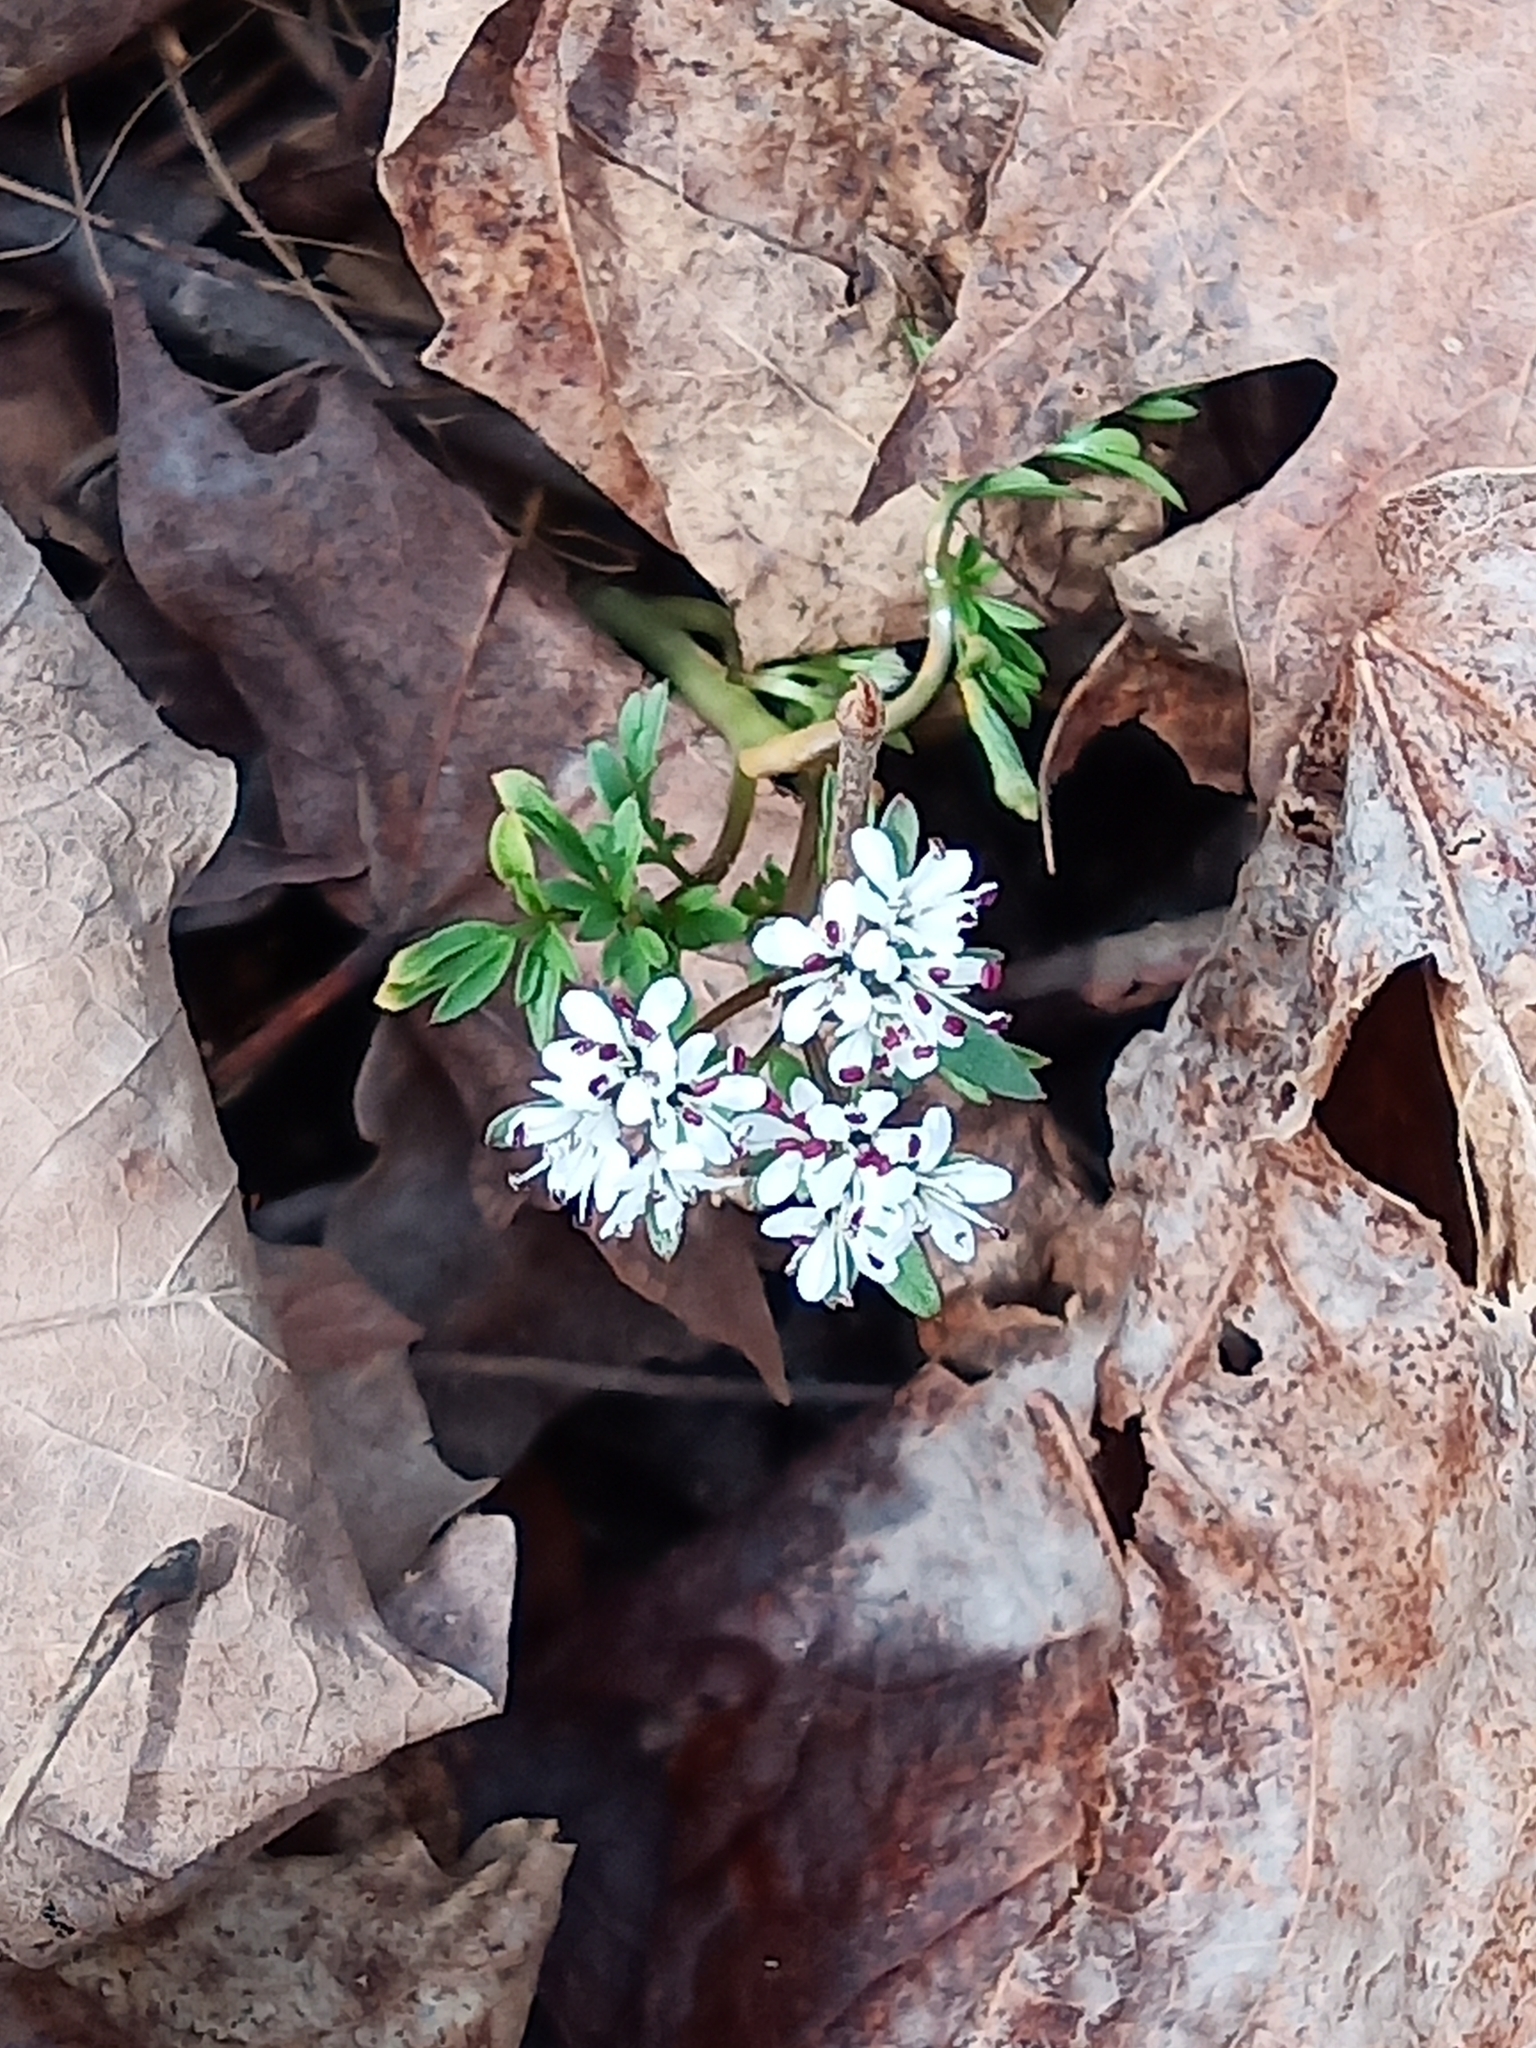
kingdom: Plantae
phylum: Tracheophyta
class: Magnoliopsida
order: Apiales
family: Apiaceae
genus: Erigenia
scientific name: Erigenia bulbosa
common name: Pepper-and-salt
